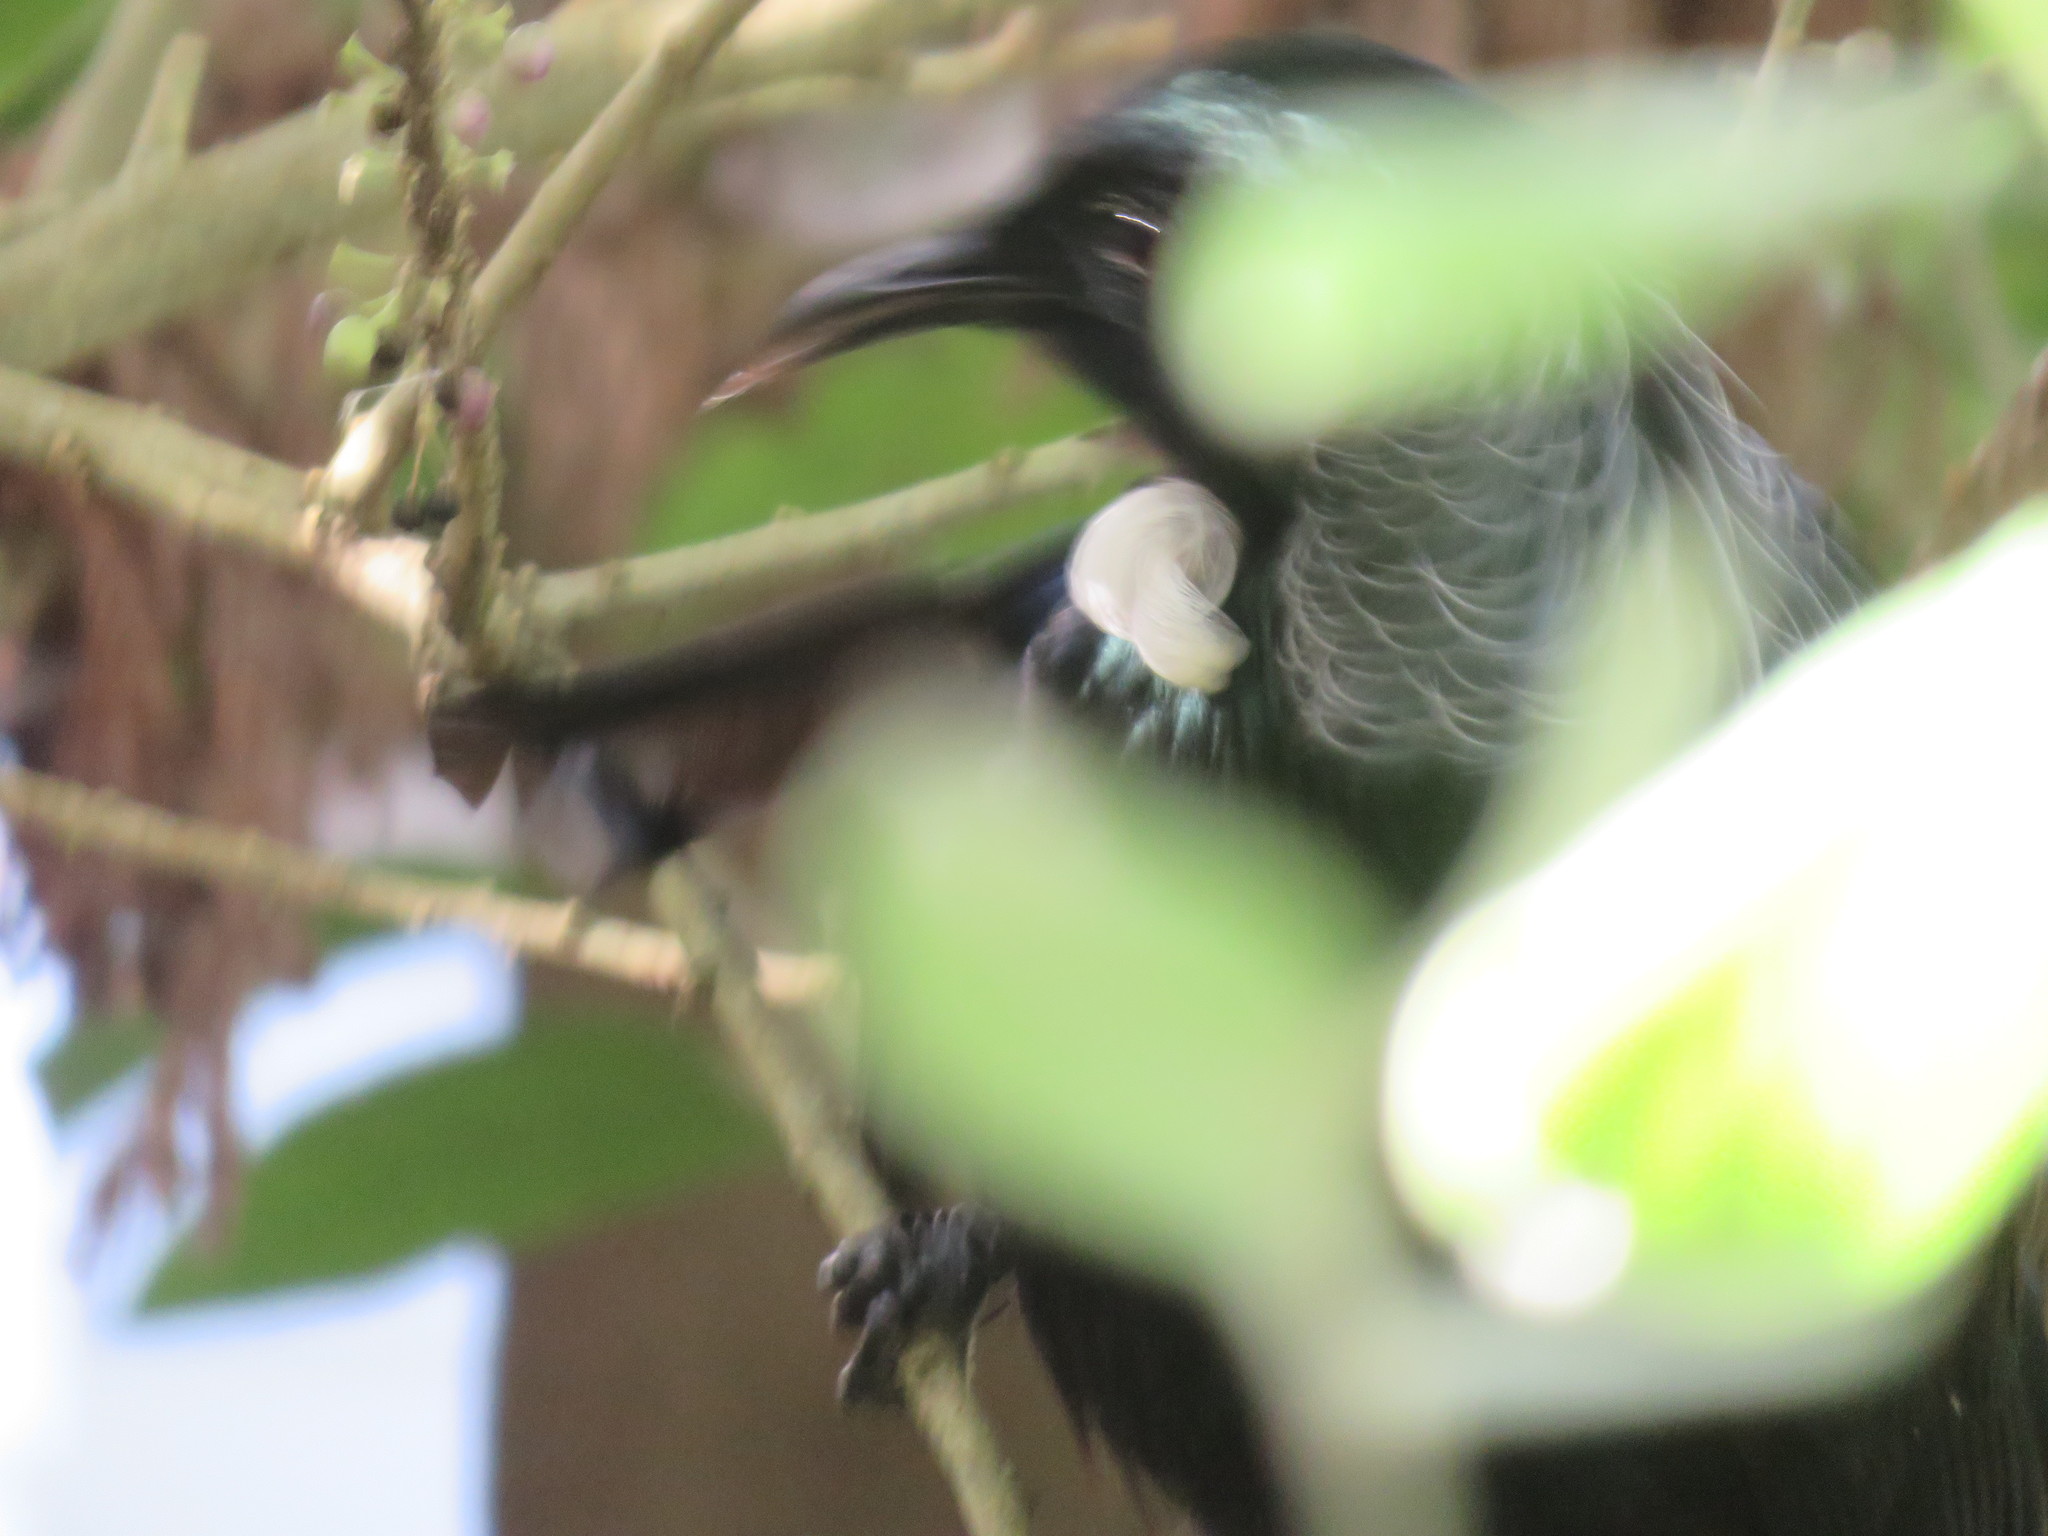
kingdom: Animalia
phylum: Chordata
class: Aves
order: Passeriformes
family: Meliphagidae
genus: Prosthemadera
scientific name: Prosthemadera novaeseelandiae
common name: Tui
